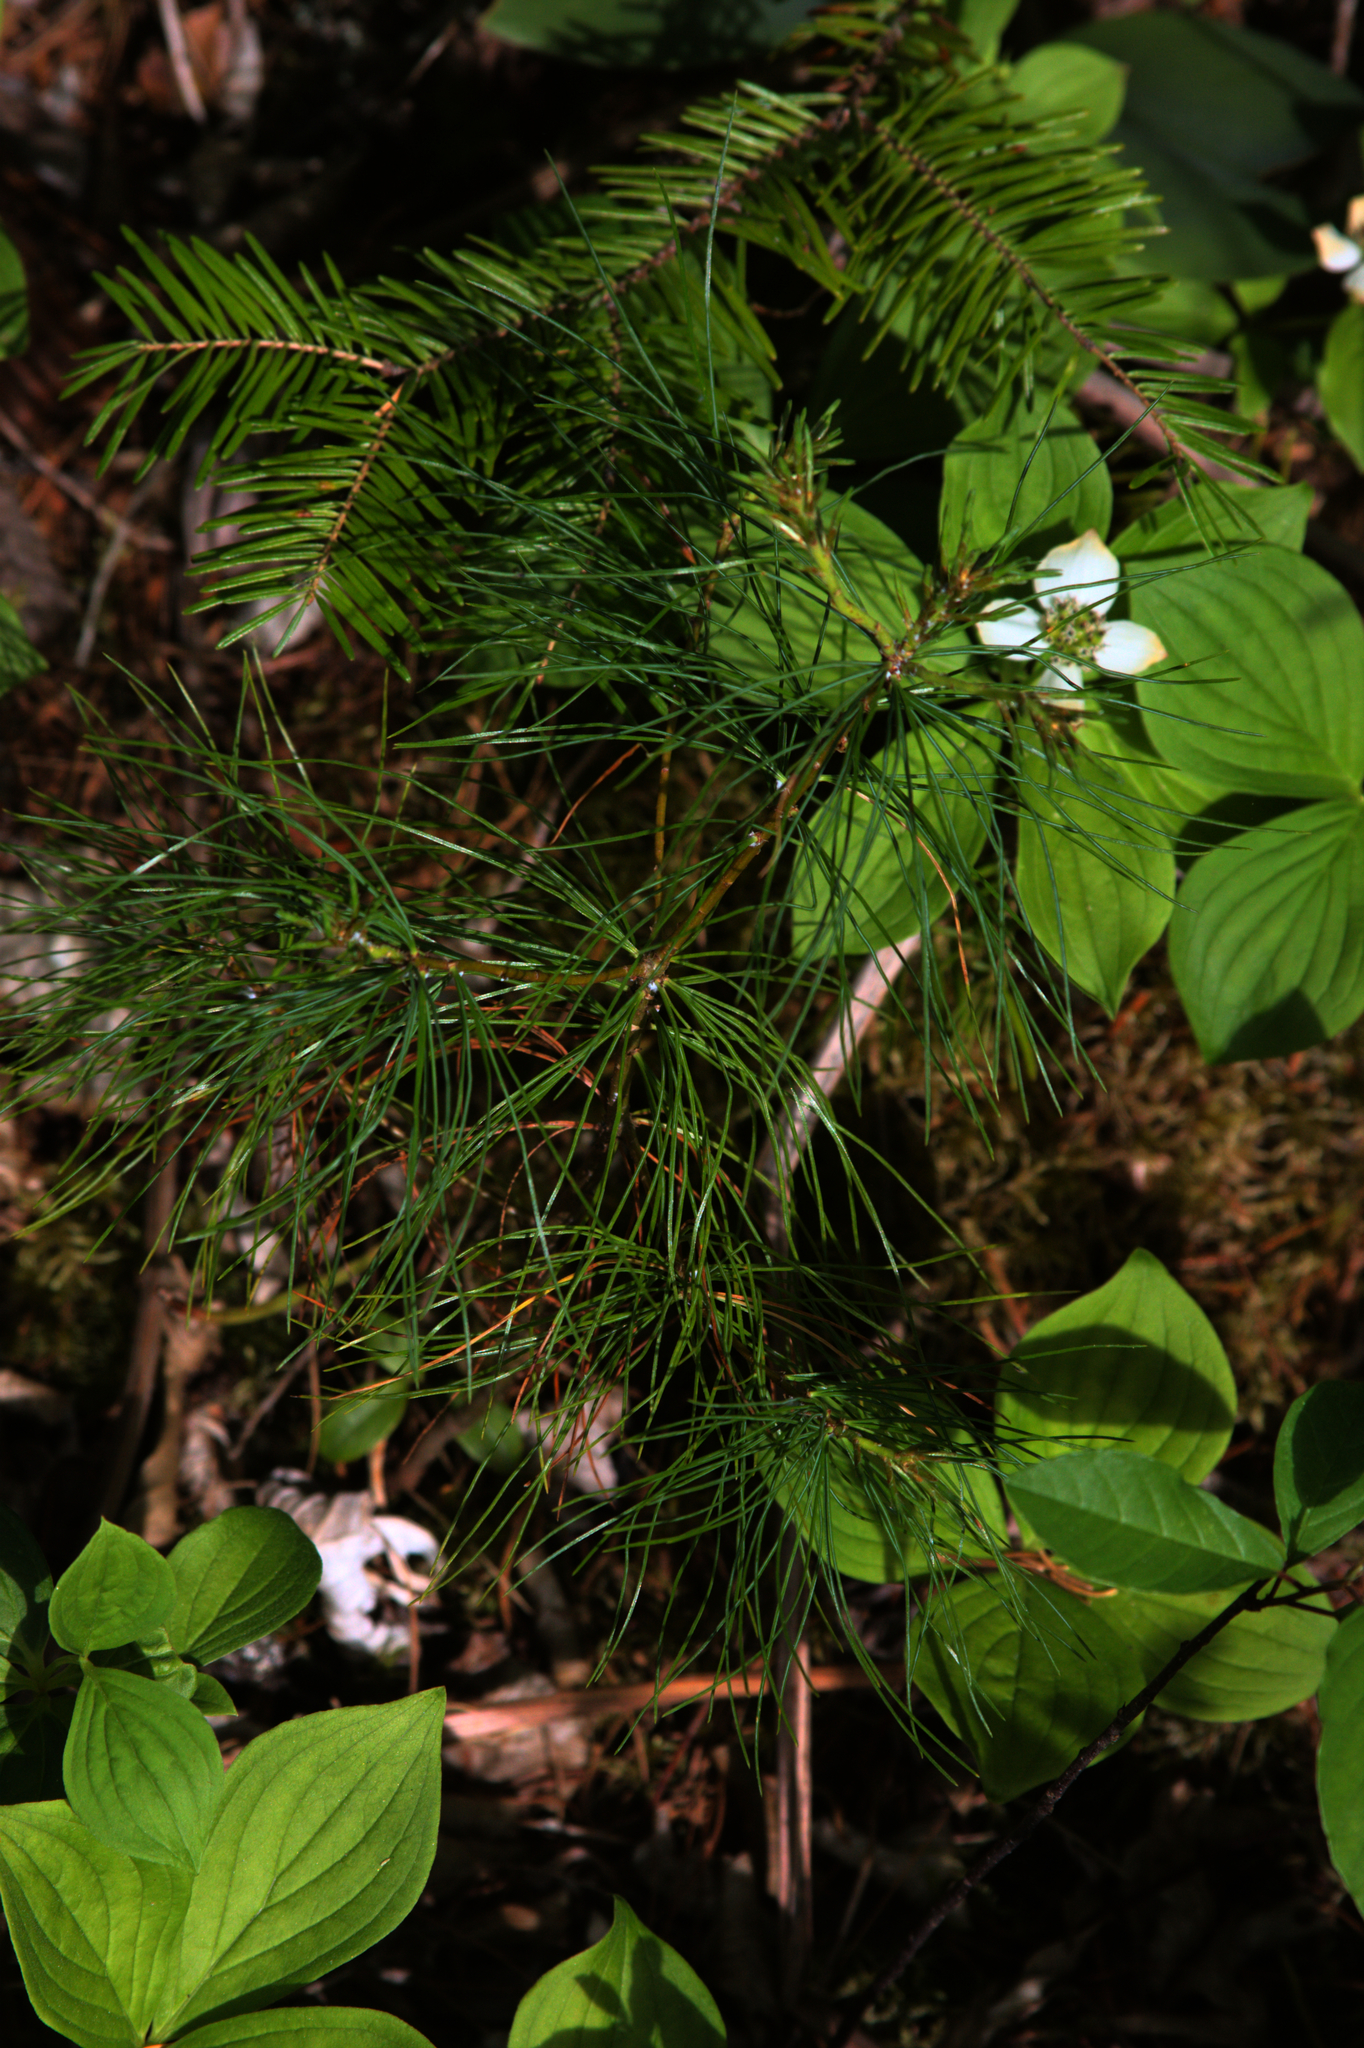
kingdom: Plantae
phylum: Tracheophyta
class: Pinopsida
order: Pinales
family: Pinaceae
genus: Pinus
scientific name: Pinus strobus
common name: Weymouth pine
